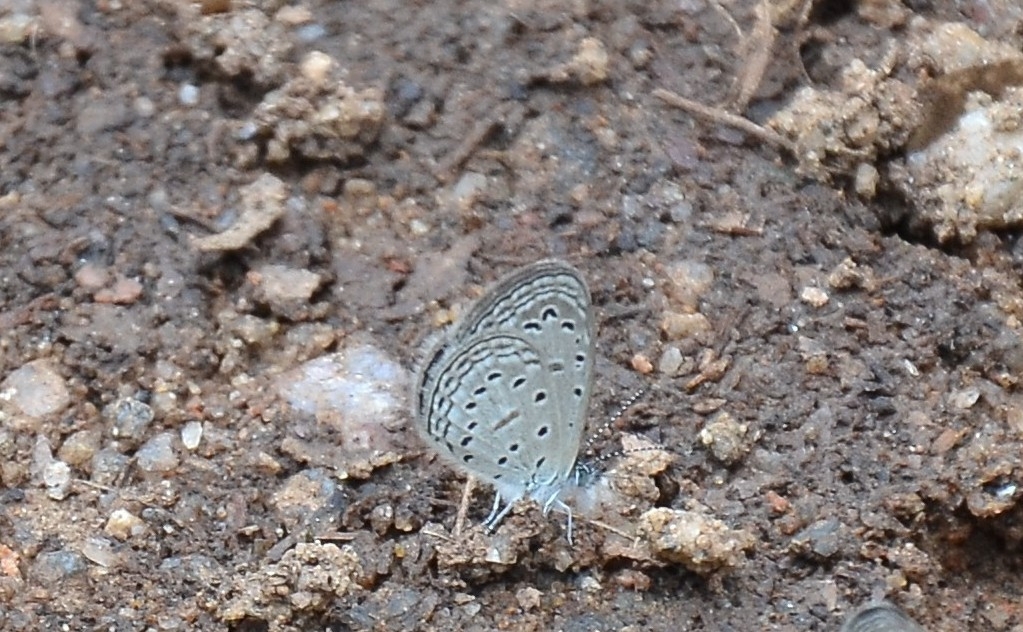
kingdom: Animalia
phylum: Arthropoda
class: Insecta
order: Lepidoptera
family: Lycaenidae
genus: Zizula
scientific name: Zizula hylax
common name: Gaika blue
